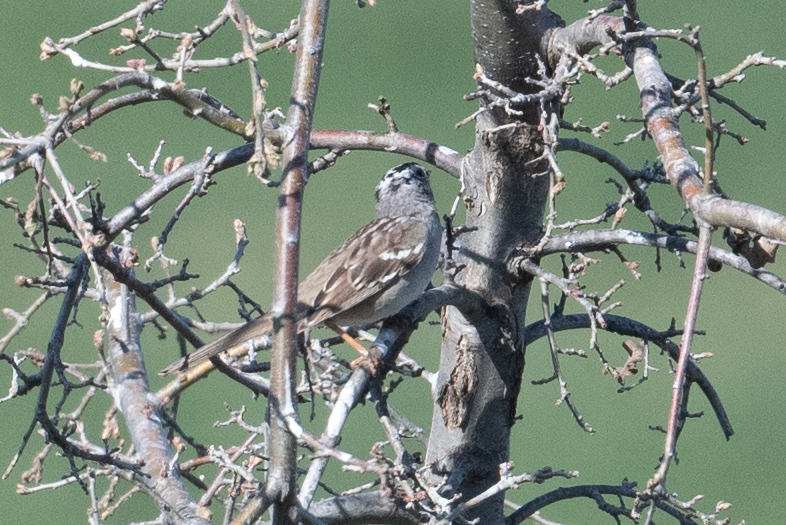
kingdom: Animalia
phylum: Chordata
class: Aves
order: Passeriformes
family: Passerellidae
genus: Zonotrichia
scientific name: Zonotrichia leucophrys
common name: White-crowned sparrow
